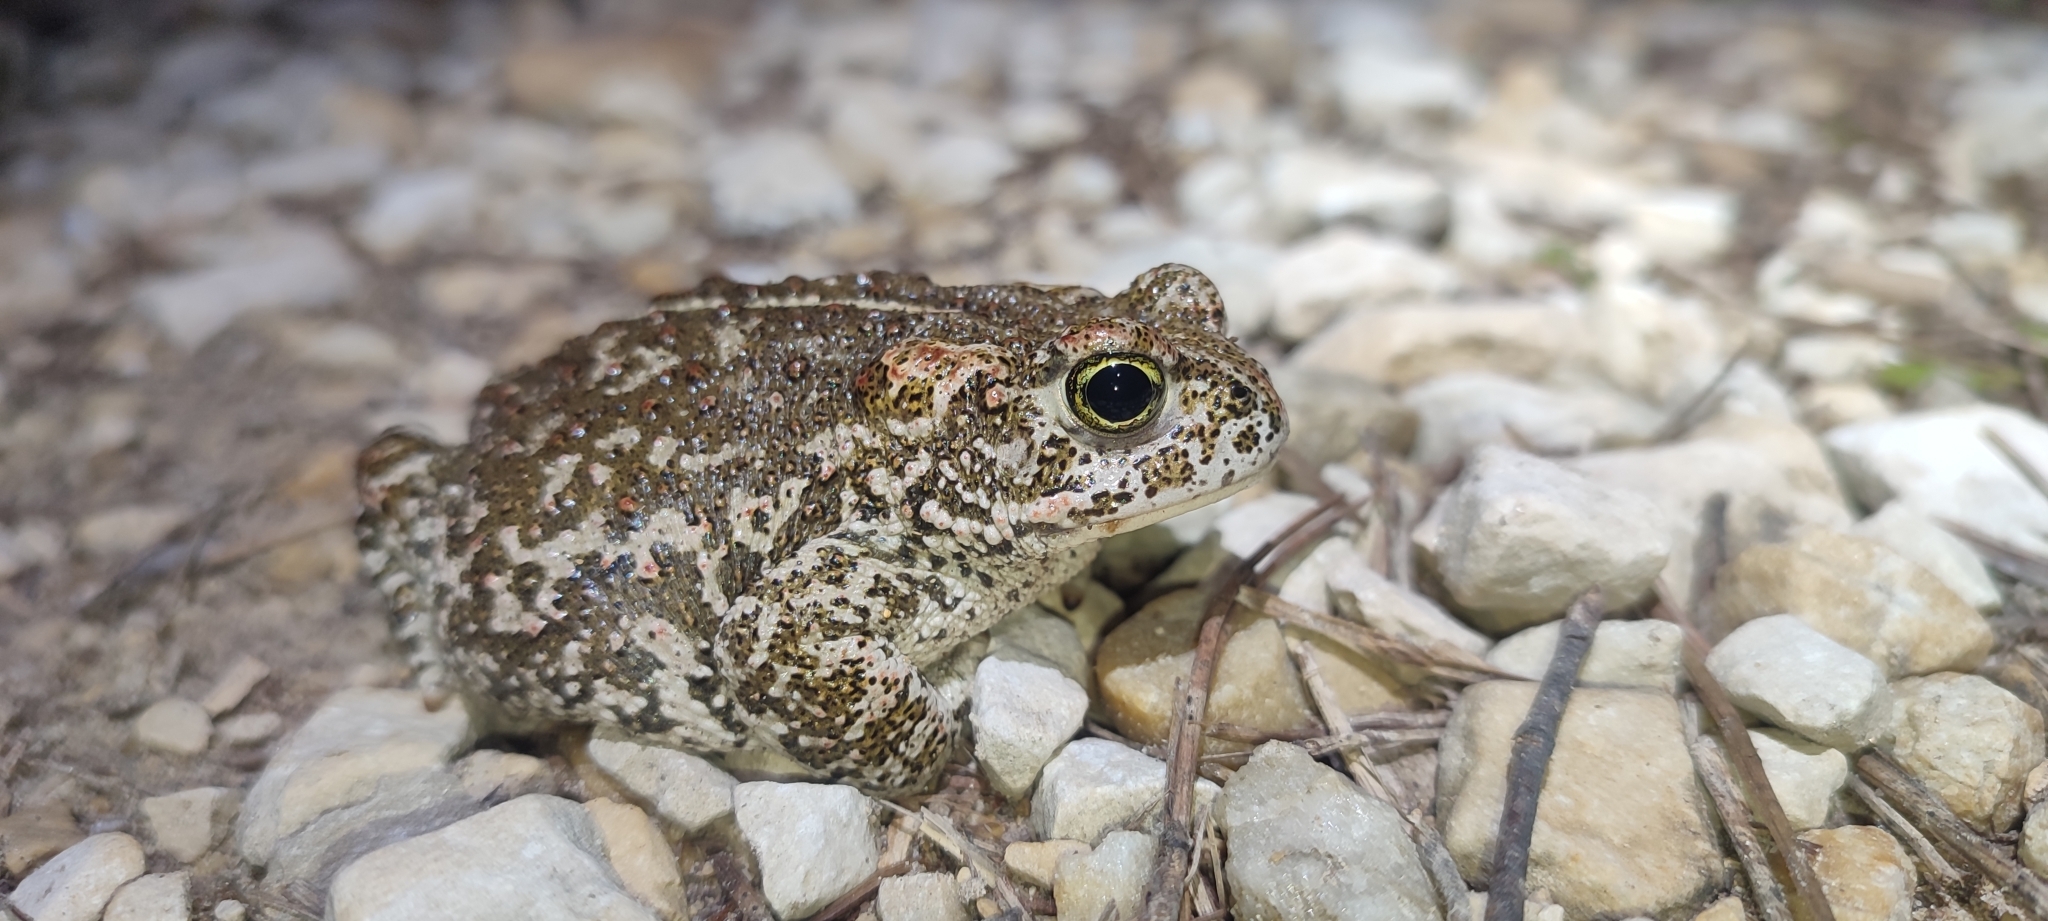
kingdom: Animalia
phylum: Chordata
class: Amphibia
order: Anura
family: Bufonidae
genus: Epidalea
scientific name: Epidalea calamita
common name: Natterjack toad
